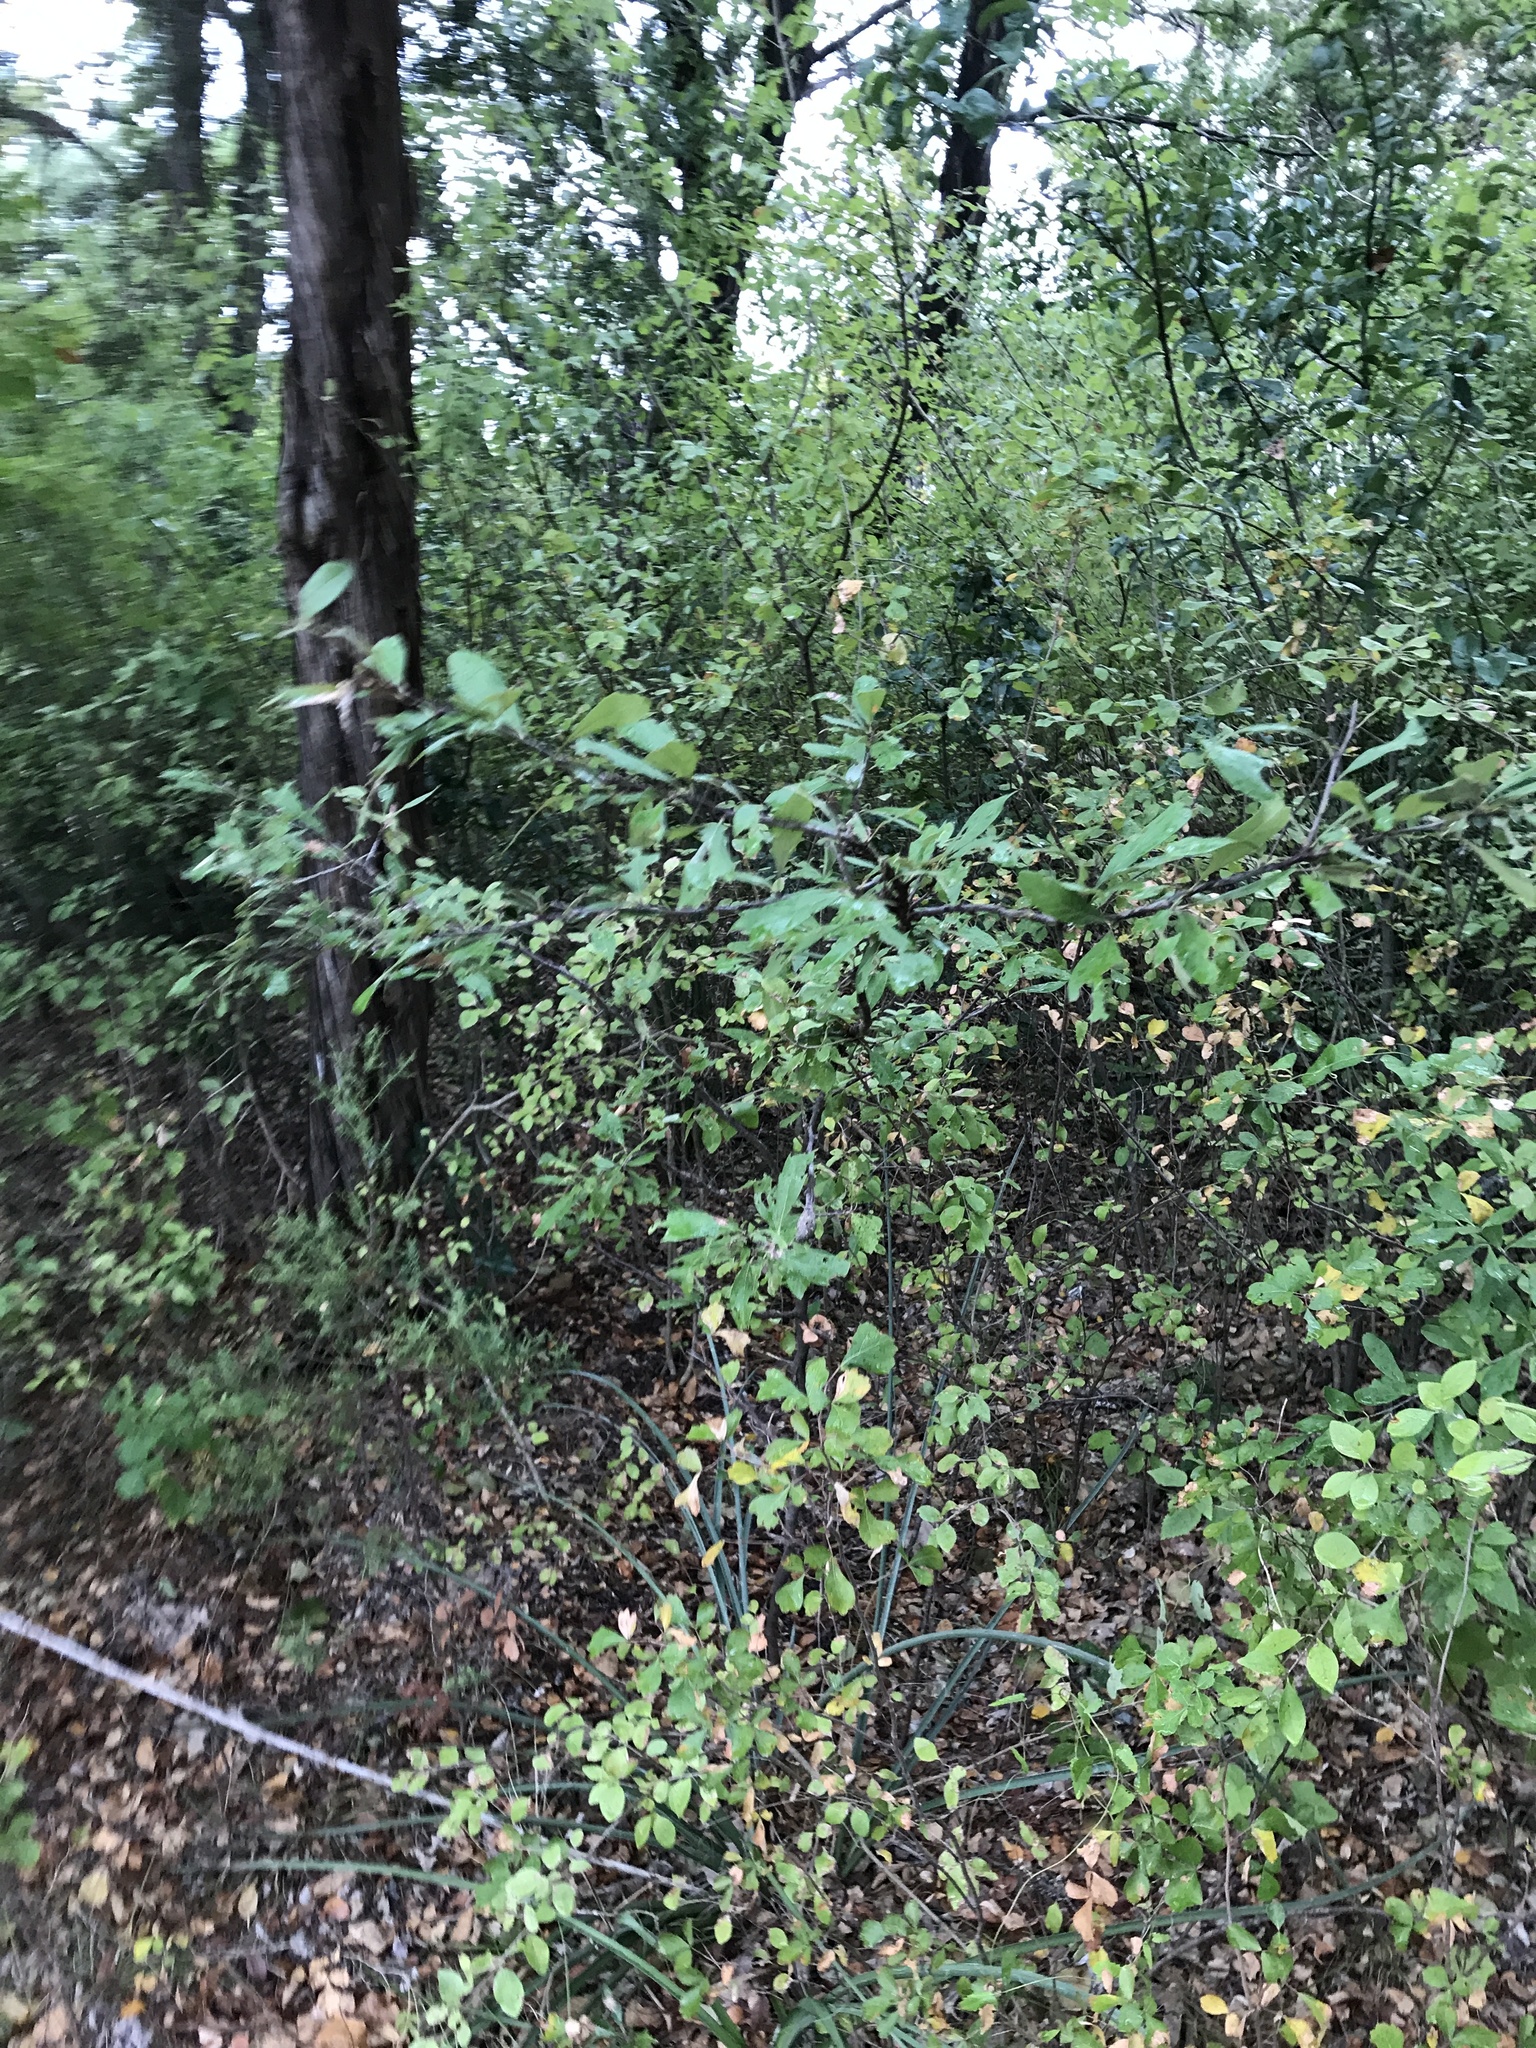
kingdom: Animalia
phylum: Arthropoda
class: Insecta
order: Diptera
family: Cecidomyiidae
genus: Bruggmanniella
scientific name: Bruggmanniella bumeliae
